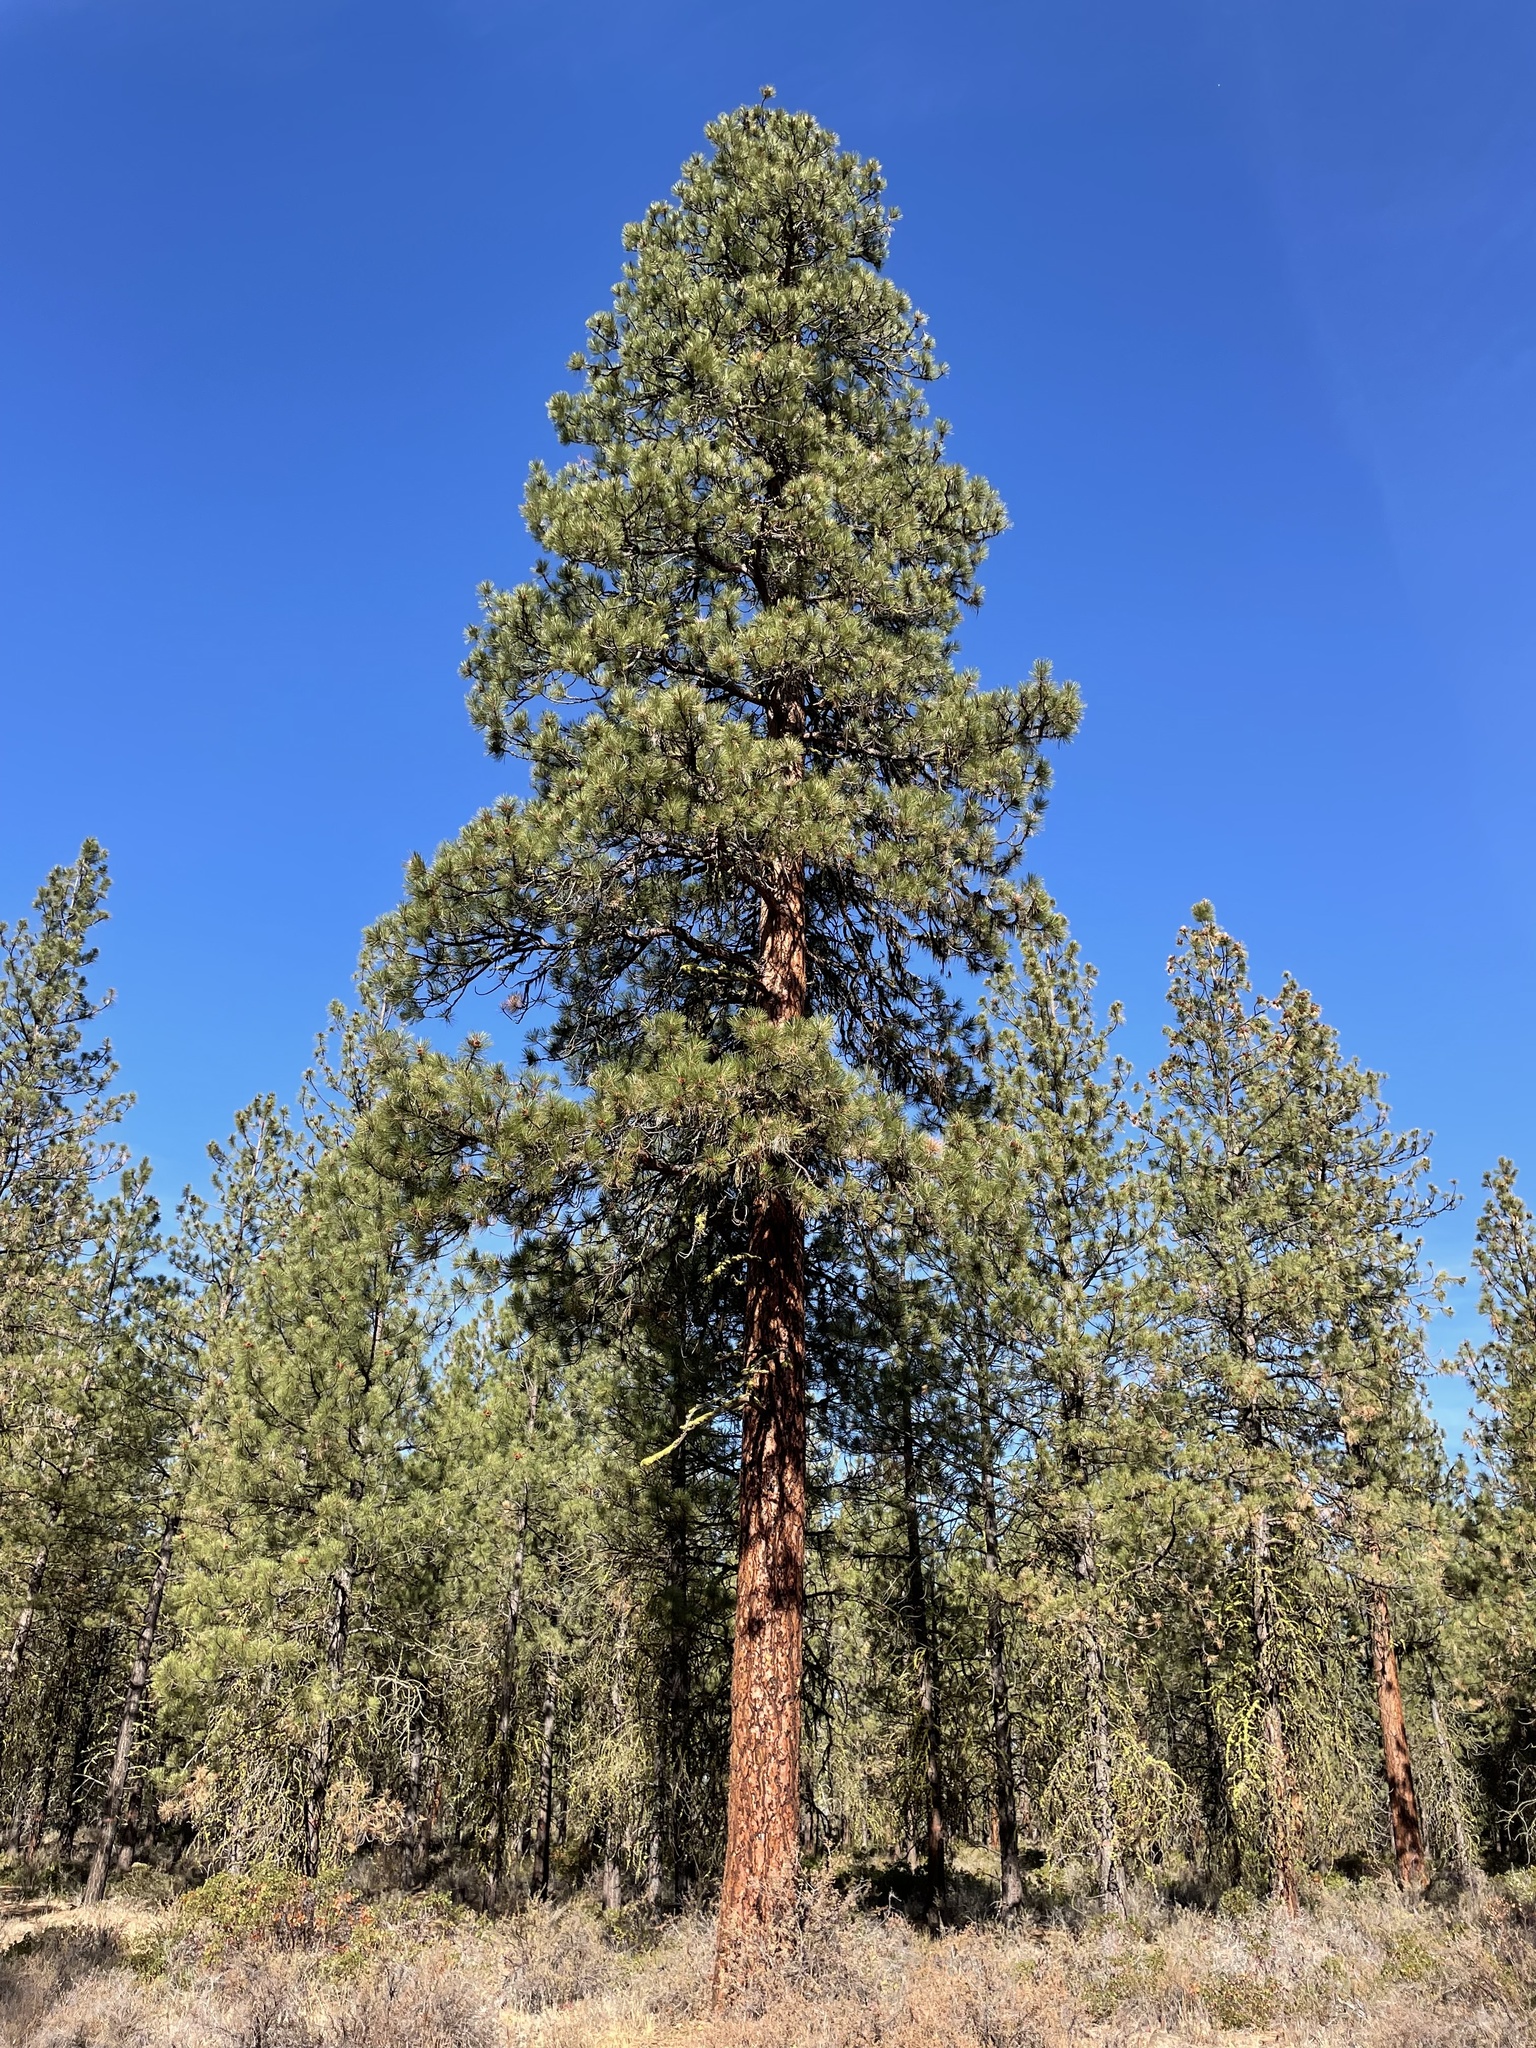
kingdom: Plantae
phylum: Tracheophyta
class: Pinopsida
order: Pinales
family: Pinaceae
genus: Pinus
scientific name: Pinus ponderosa
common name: Western yellow-pine
